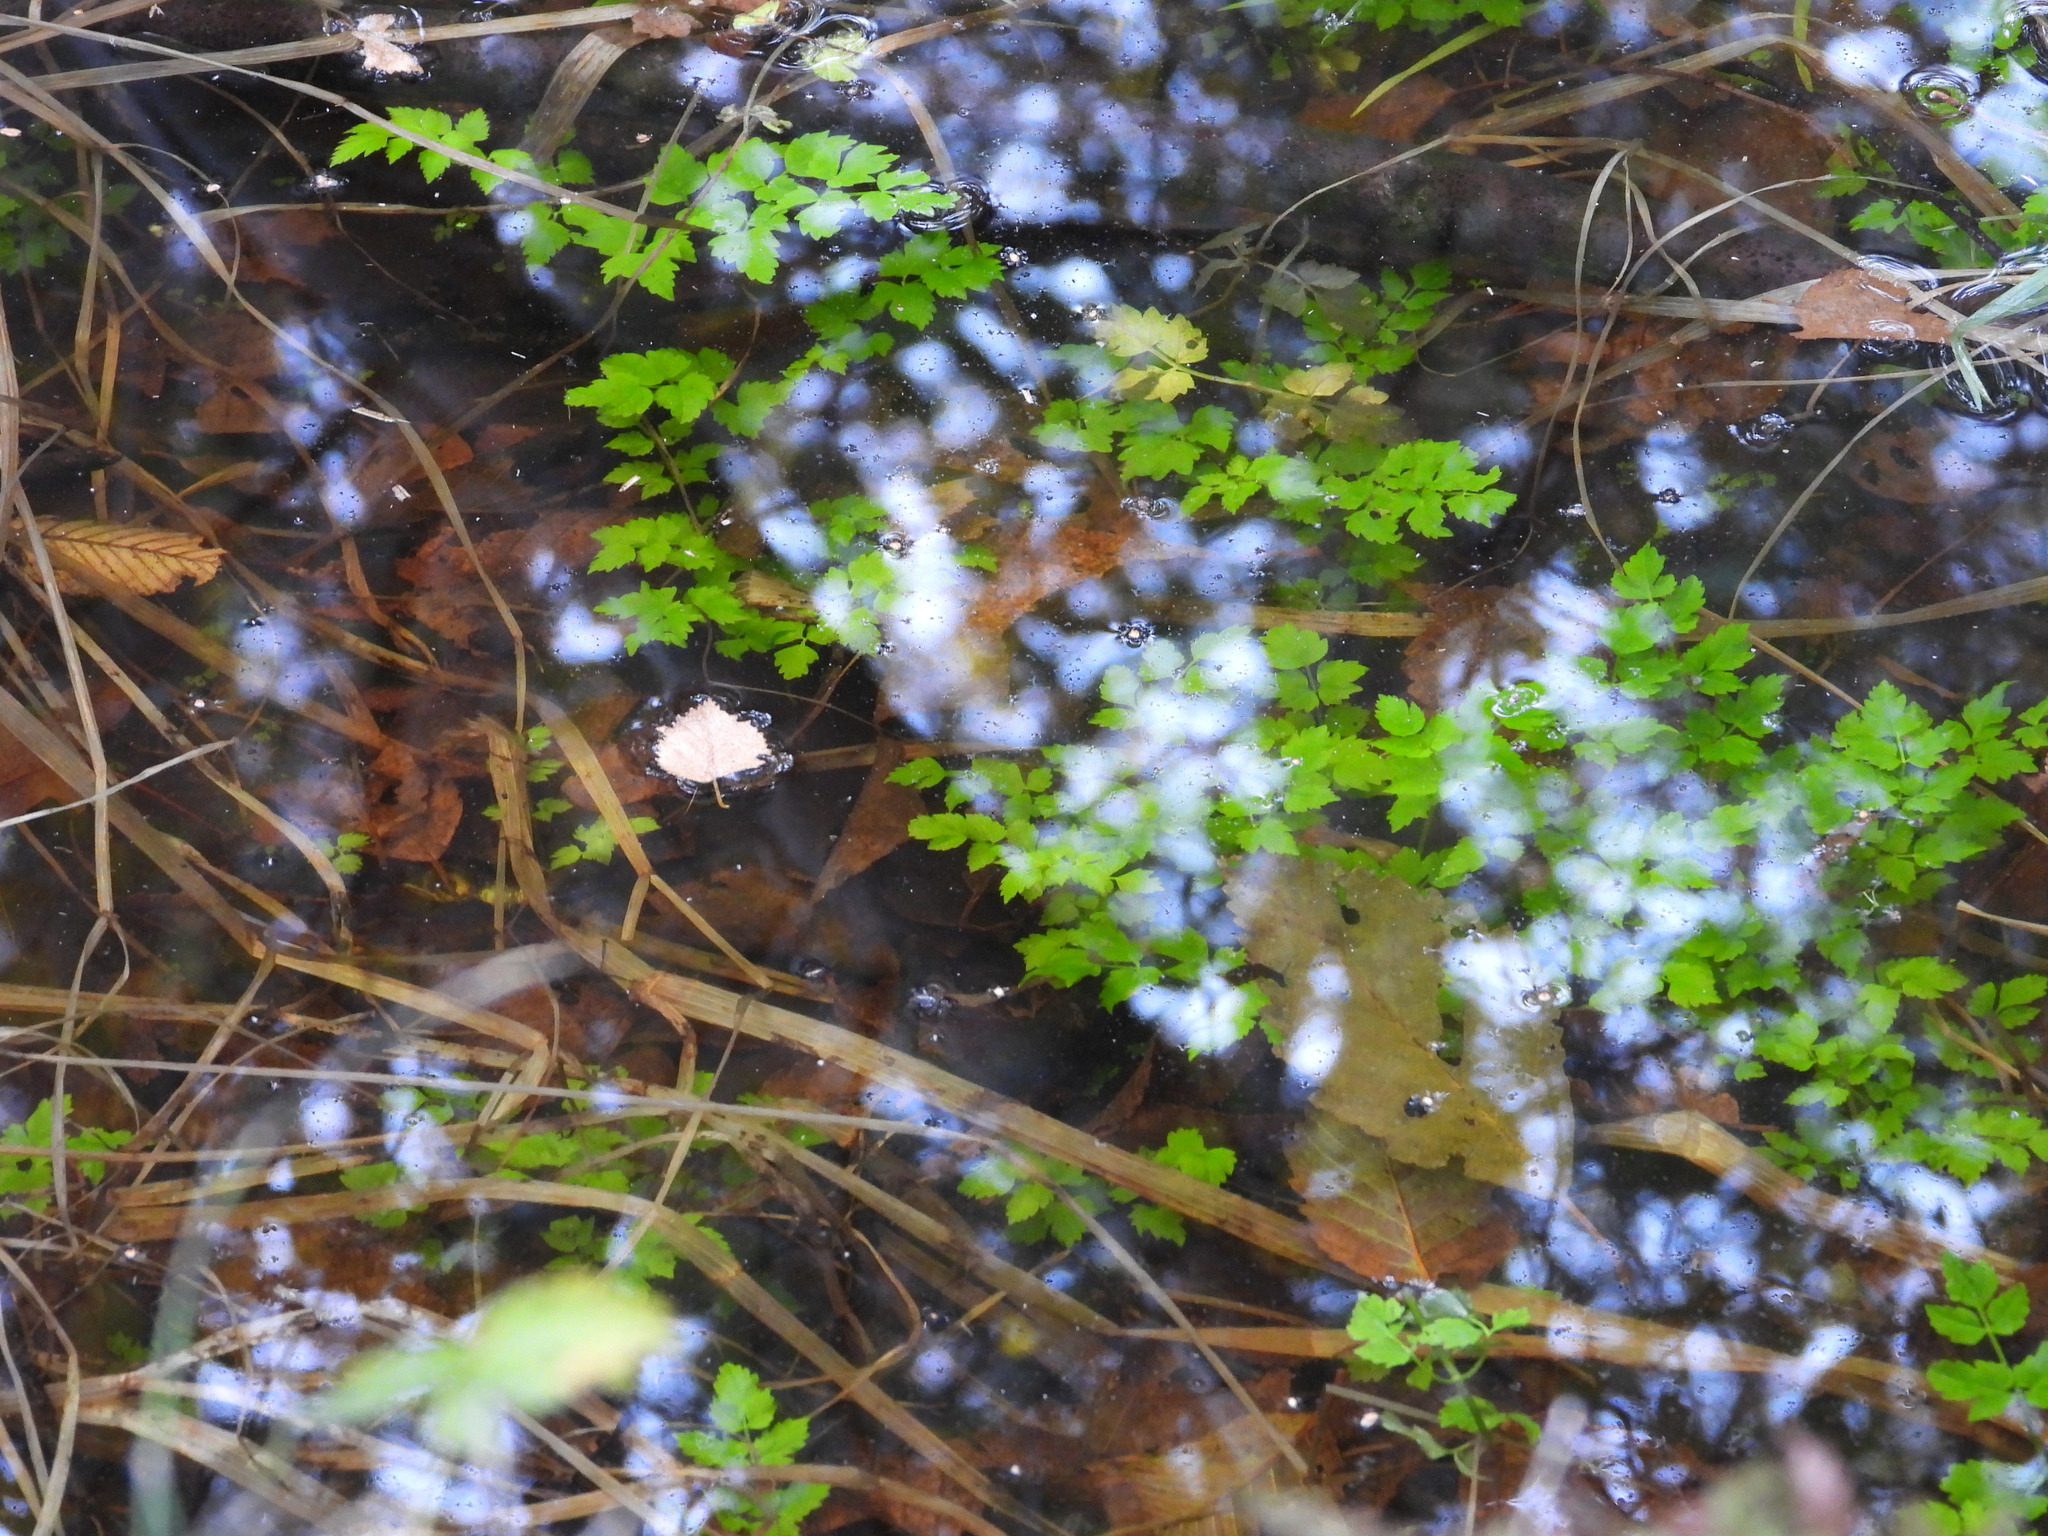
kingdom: Plantae
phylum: Tracheophyta
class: Magnoliopsida
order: Apiales
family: Apiaceae
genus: Oenanthe
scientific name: Oenanthe sarmentosa
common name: American water-parsley
